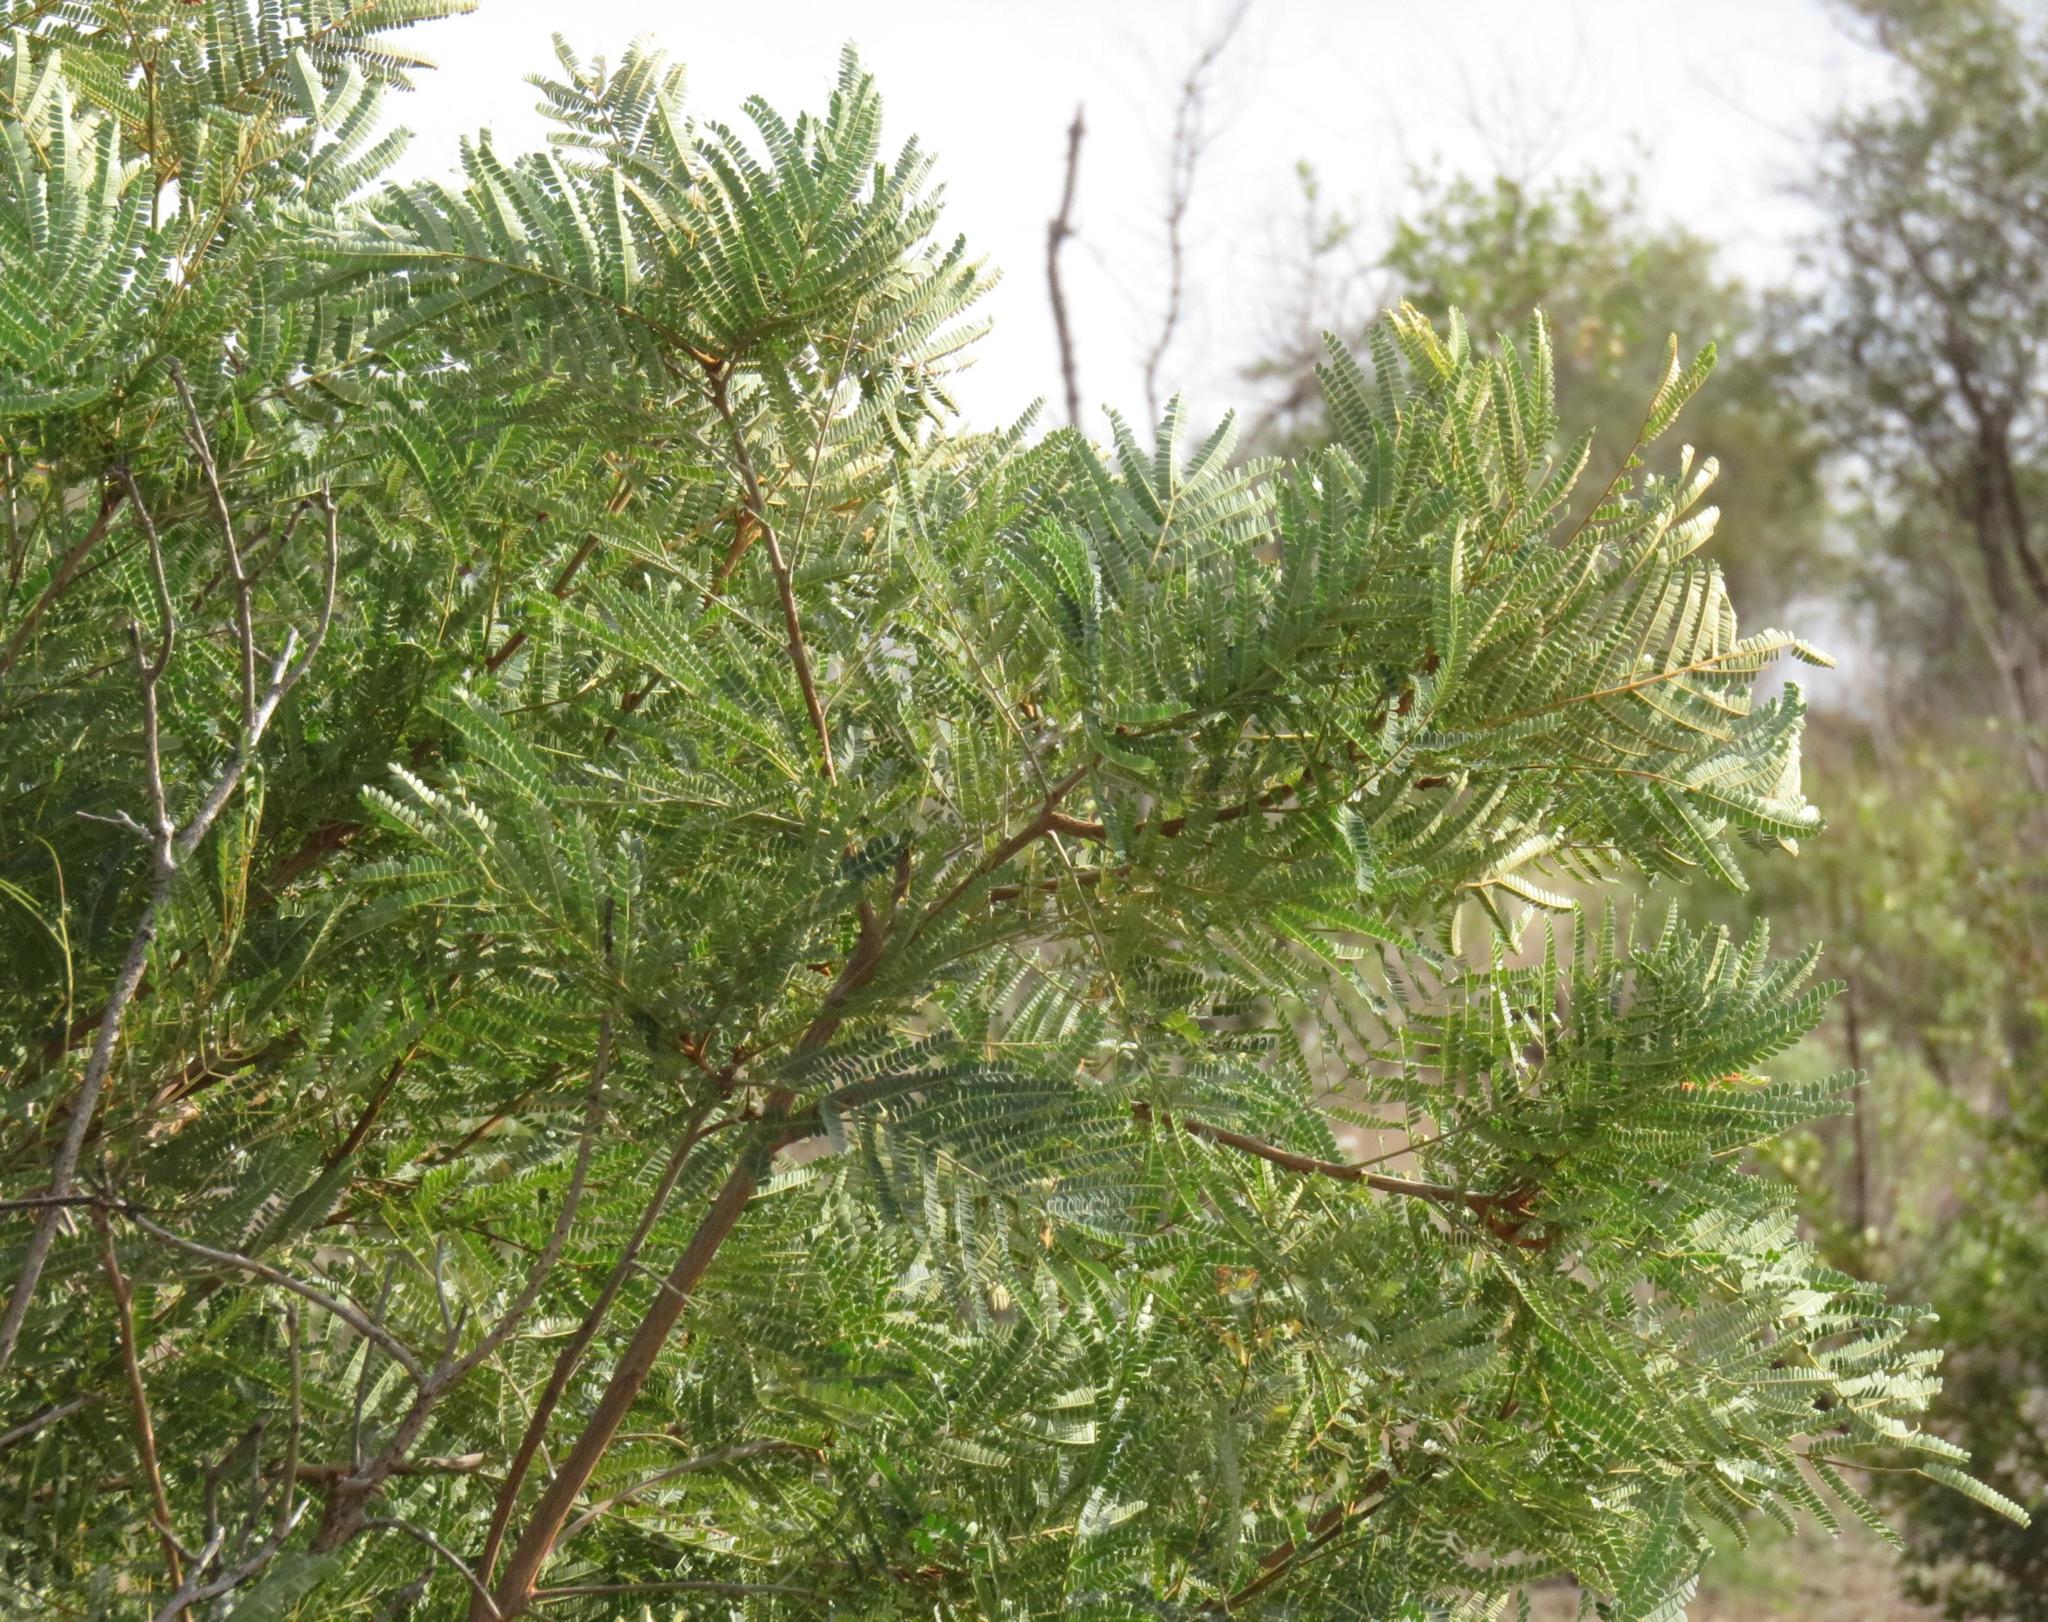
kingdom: Plantae
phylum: Tracheophyta
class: Magnoliopsida
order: Fabales
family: Fabaceae
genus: Peltophorum
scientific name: Peltophorum africanum
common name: African black wattle
